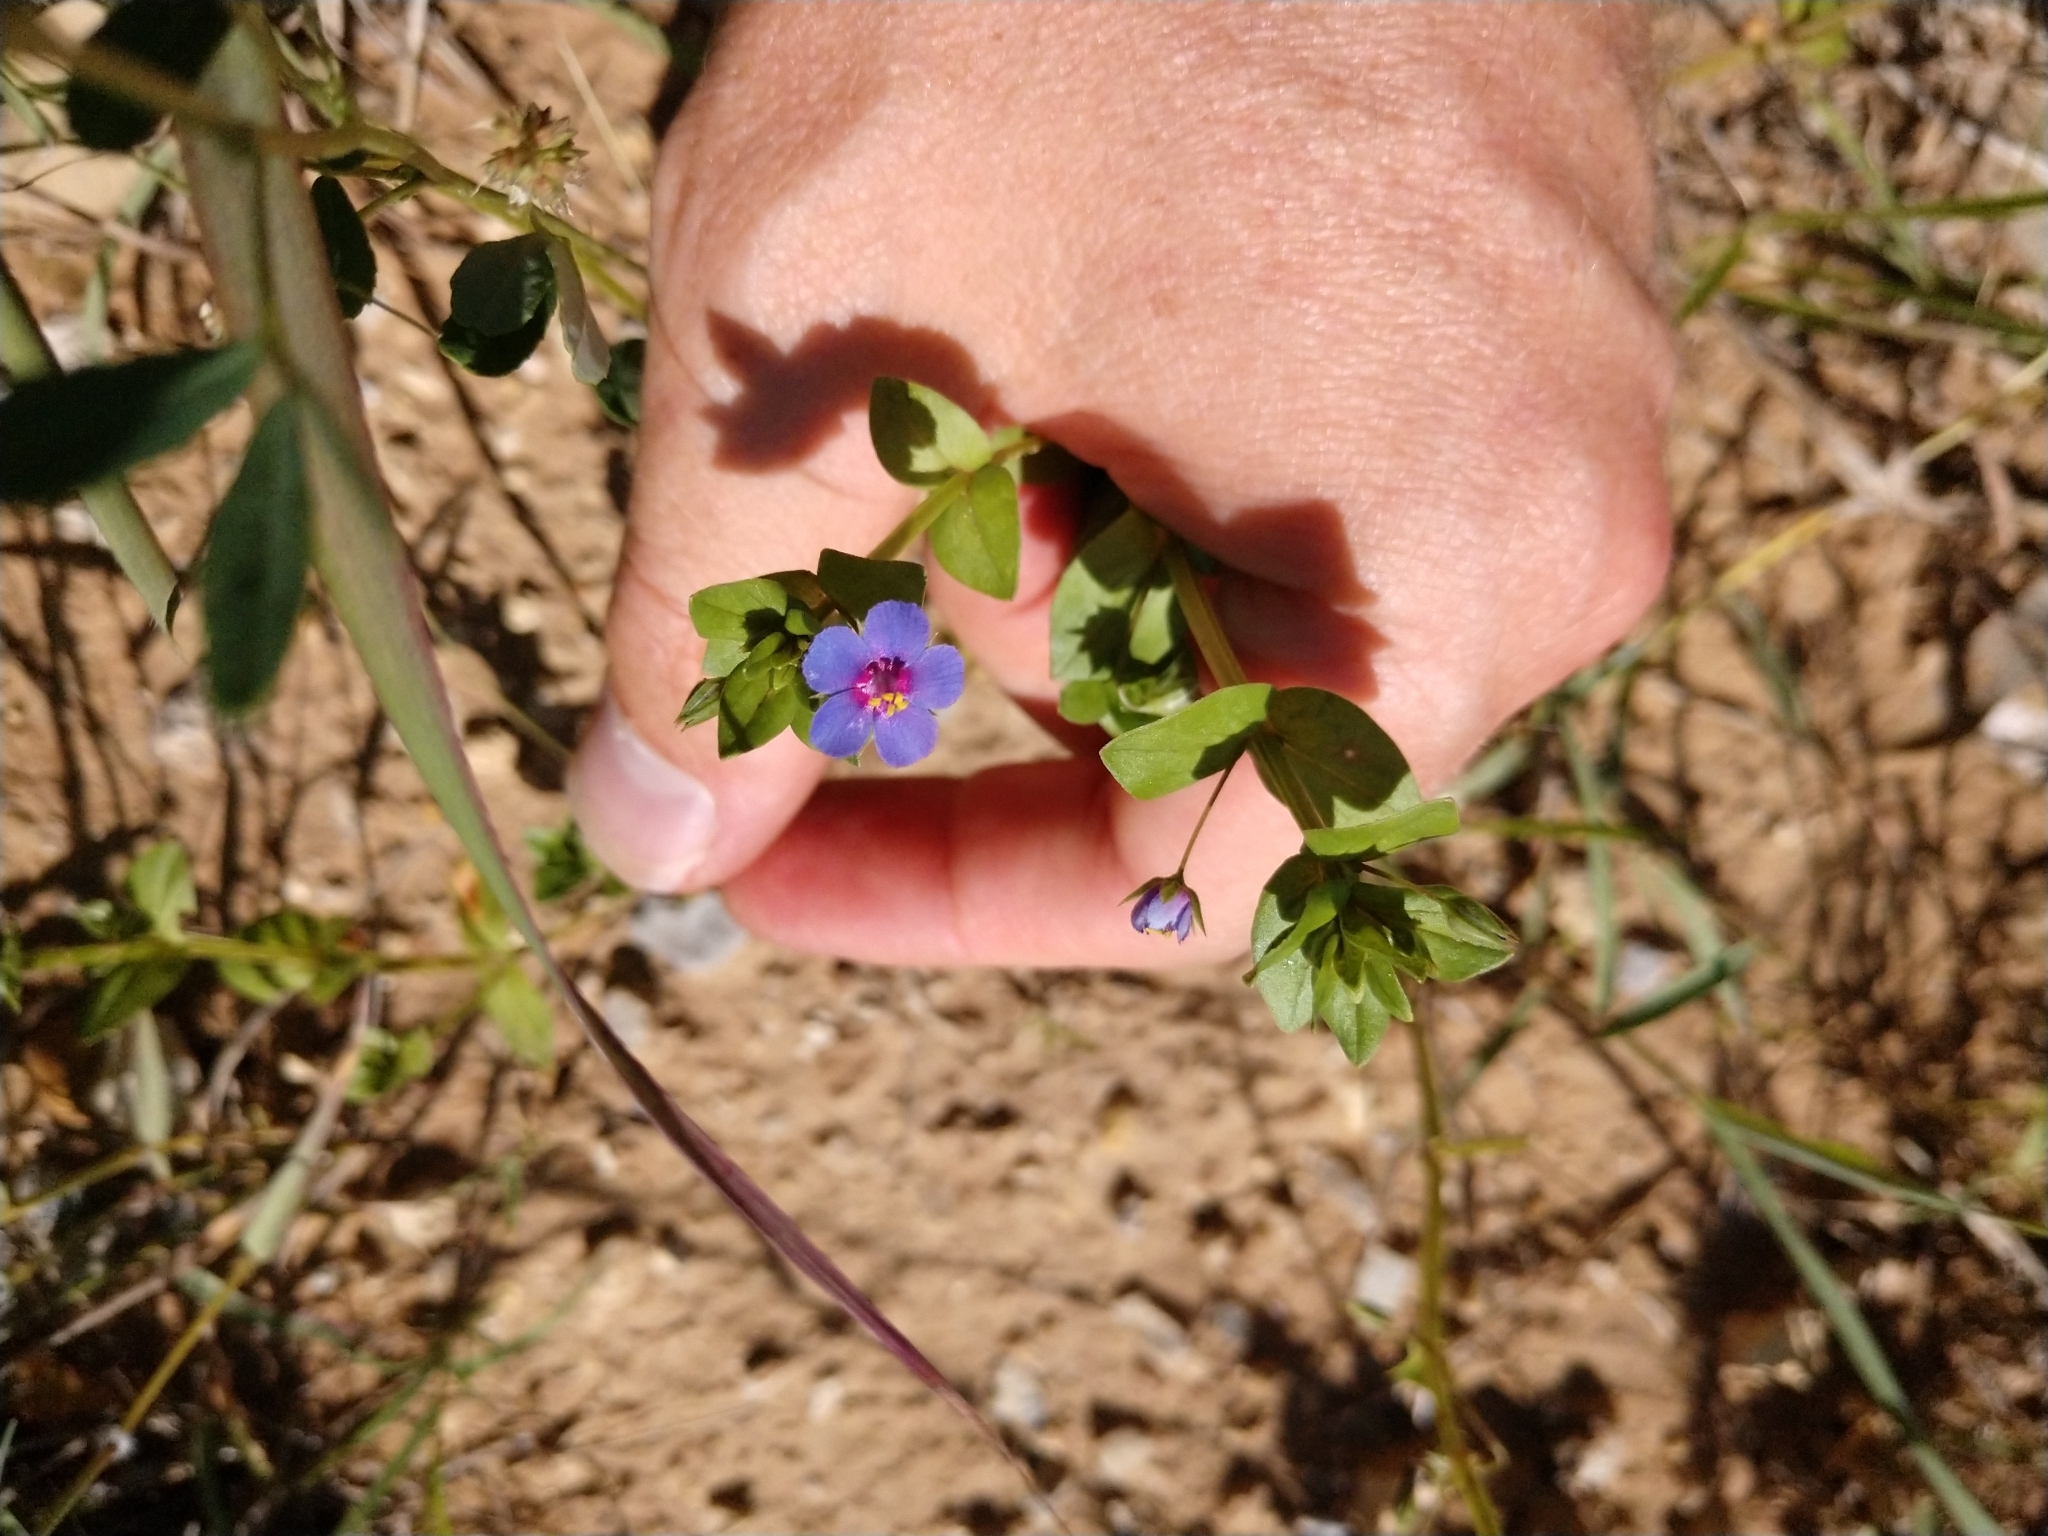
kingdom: Plantae
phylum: Tracheophyta
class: Magnoliopsida
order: Ericales
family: Primulaceae
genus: Lysimachia
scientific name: Lysimachia foemina
